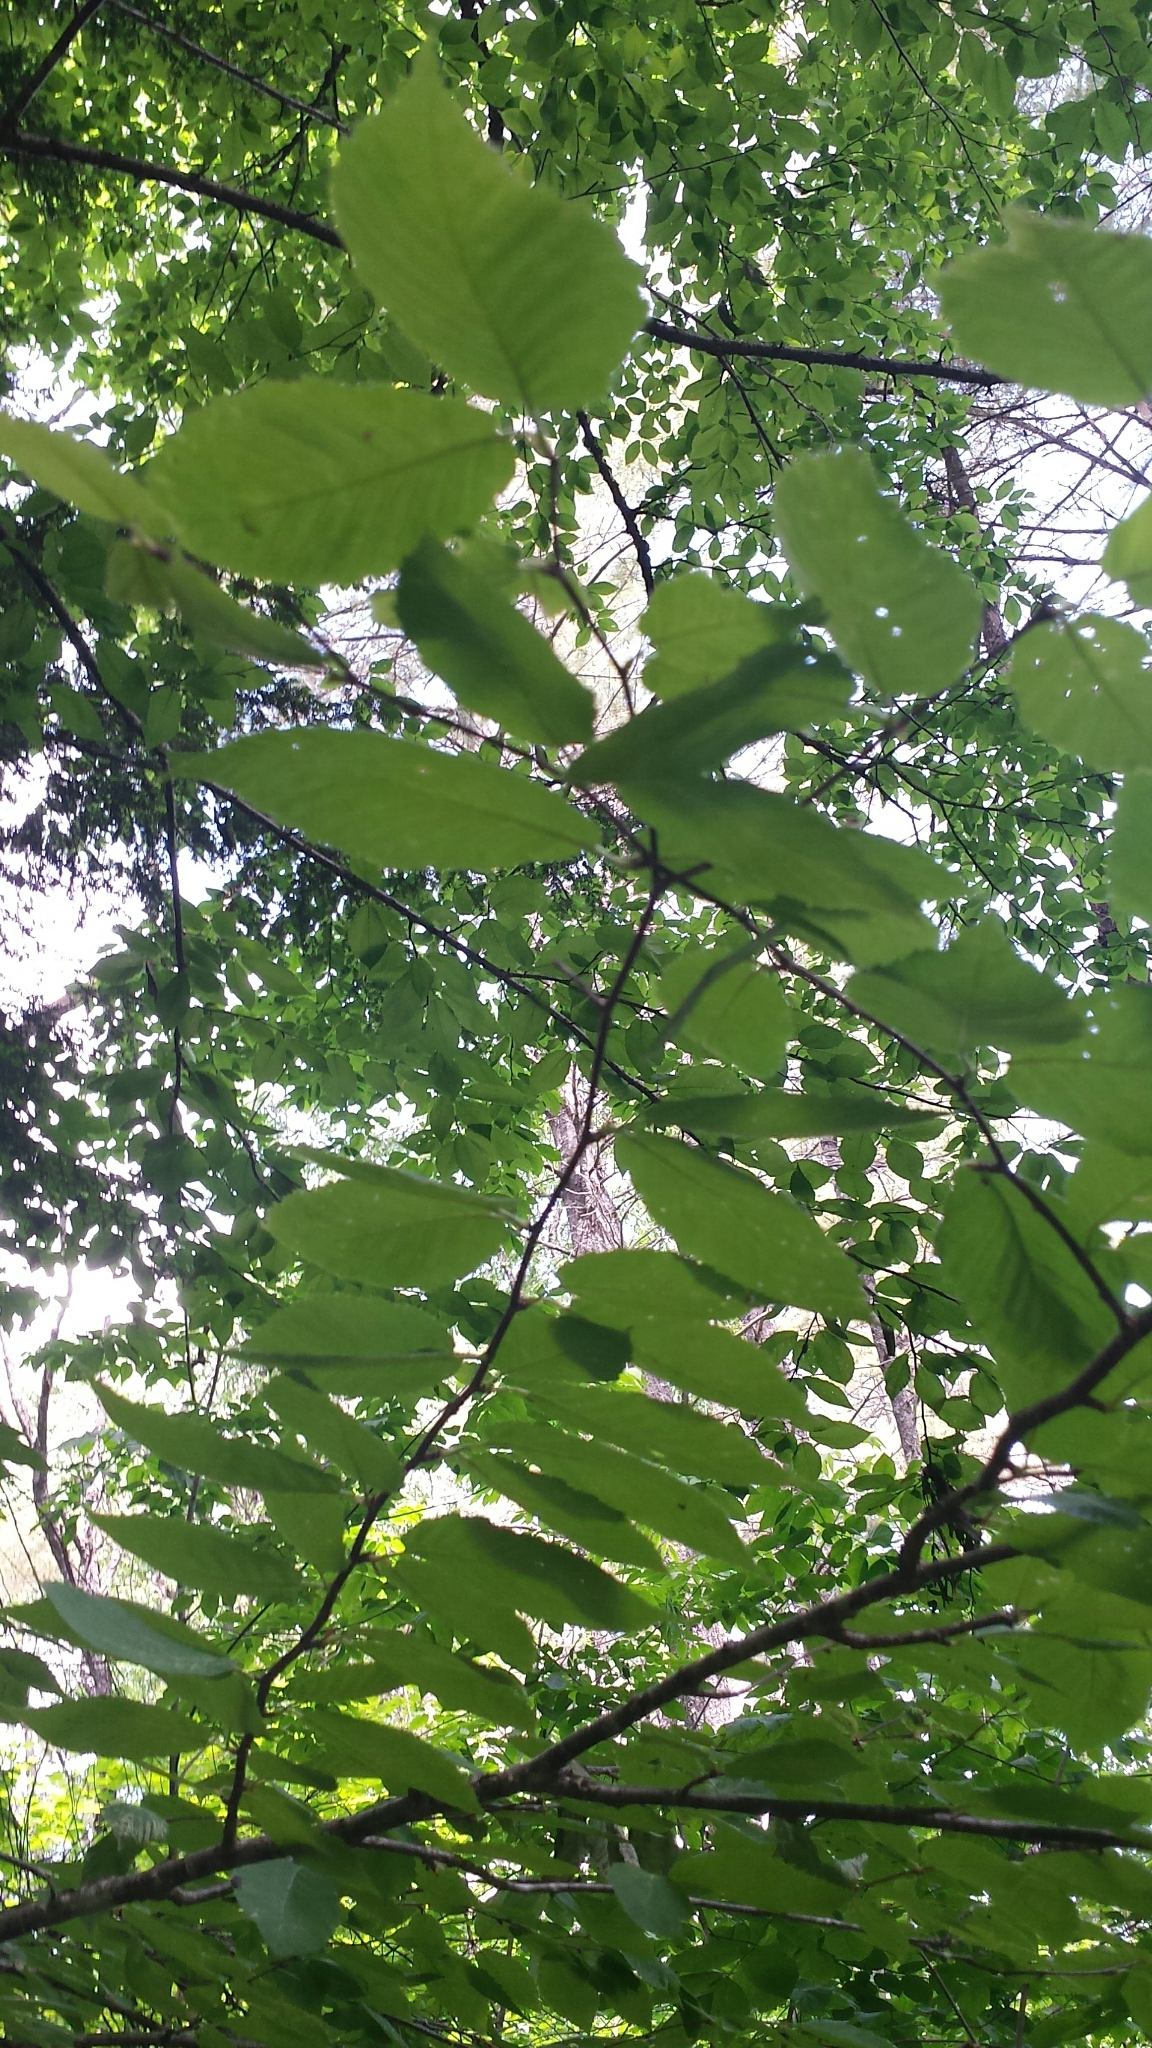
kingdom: Plantae
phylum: Tracheophyta
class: Magnoliopsida
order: Fagales
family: Betulaceae
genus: Betula
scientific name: Betula alleghaniensis
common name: Yellow birch
